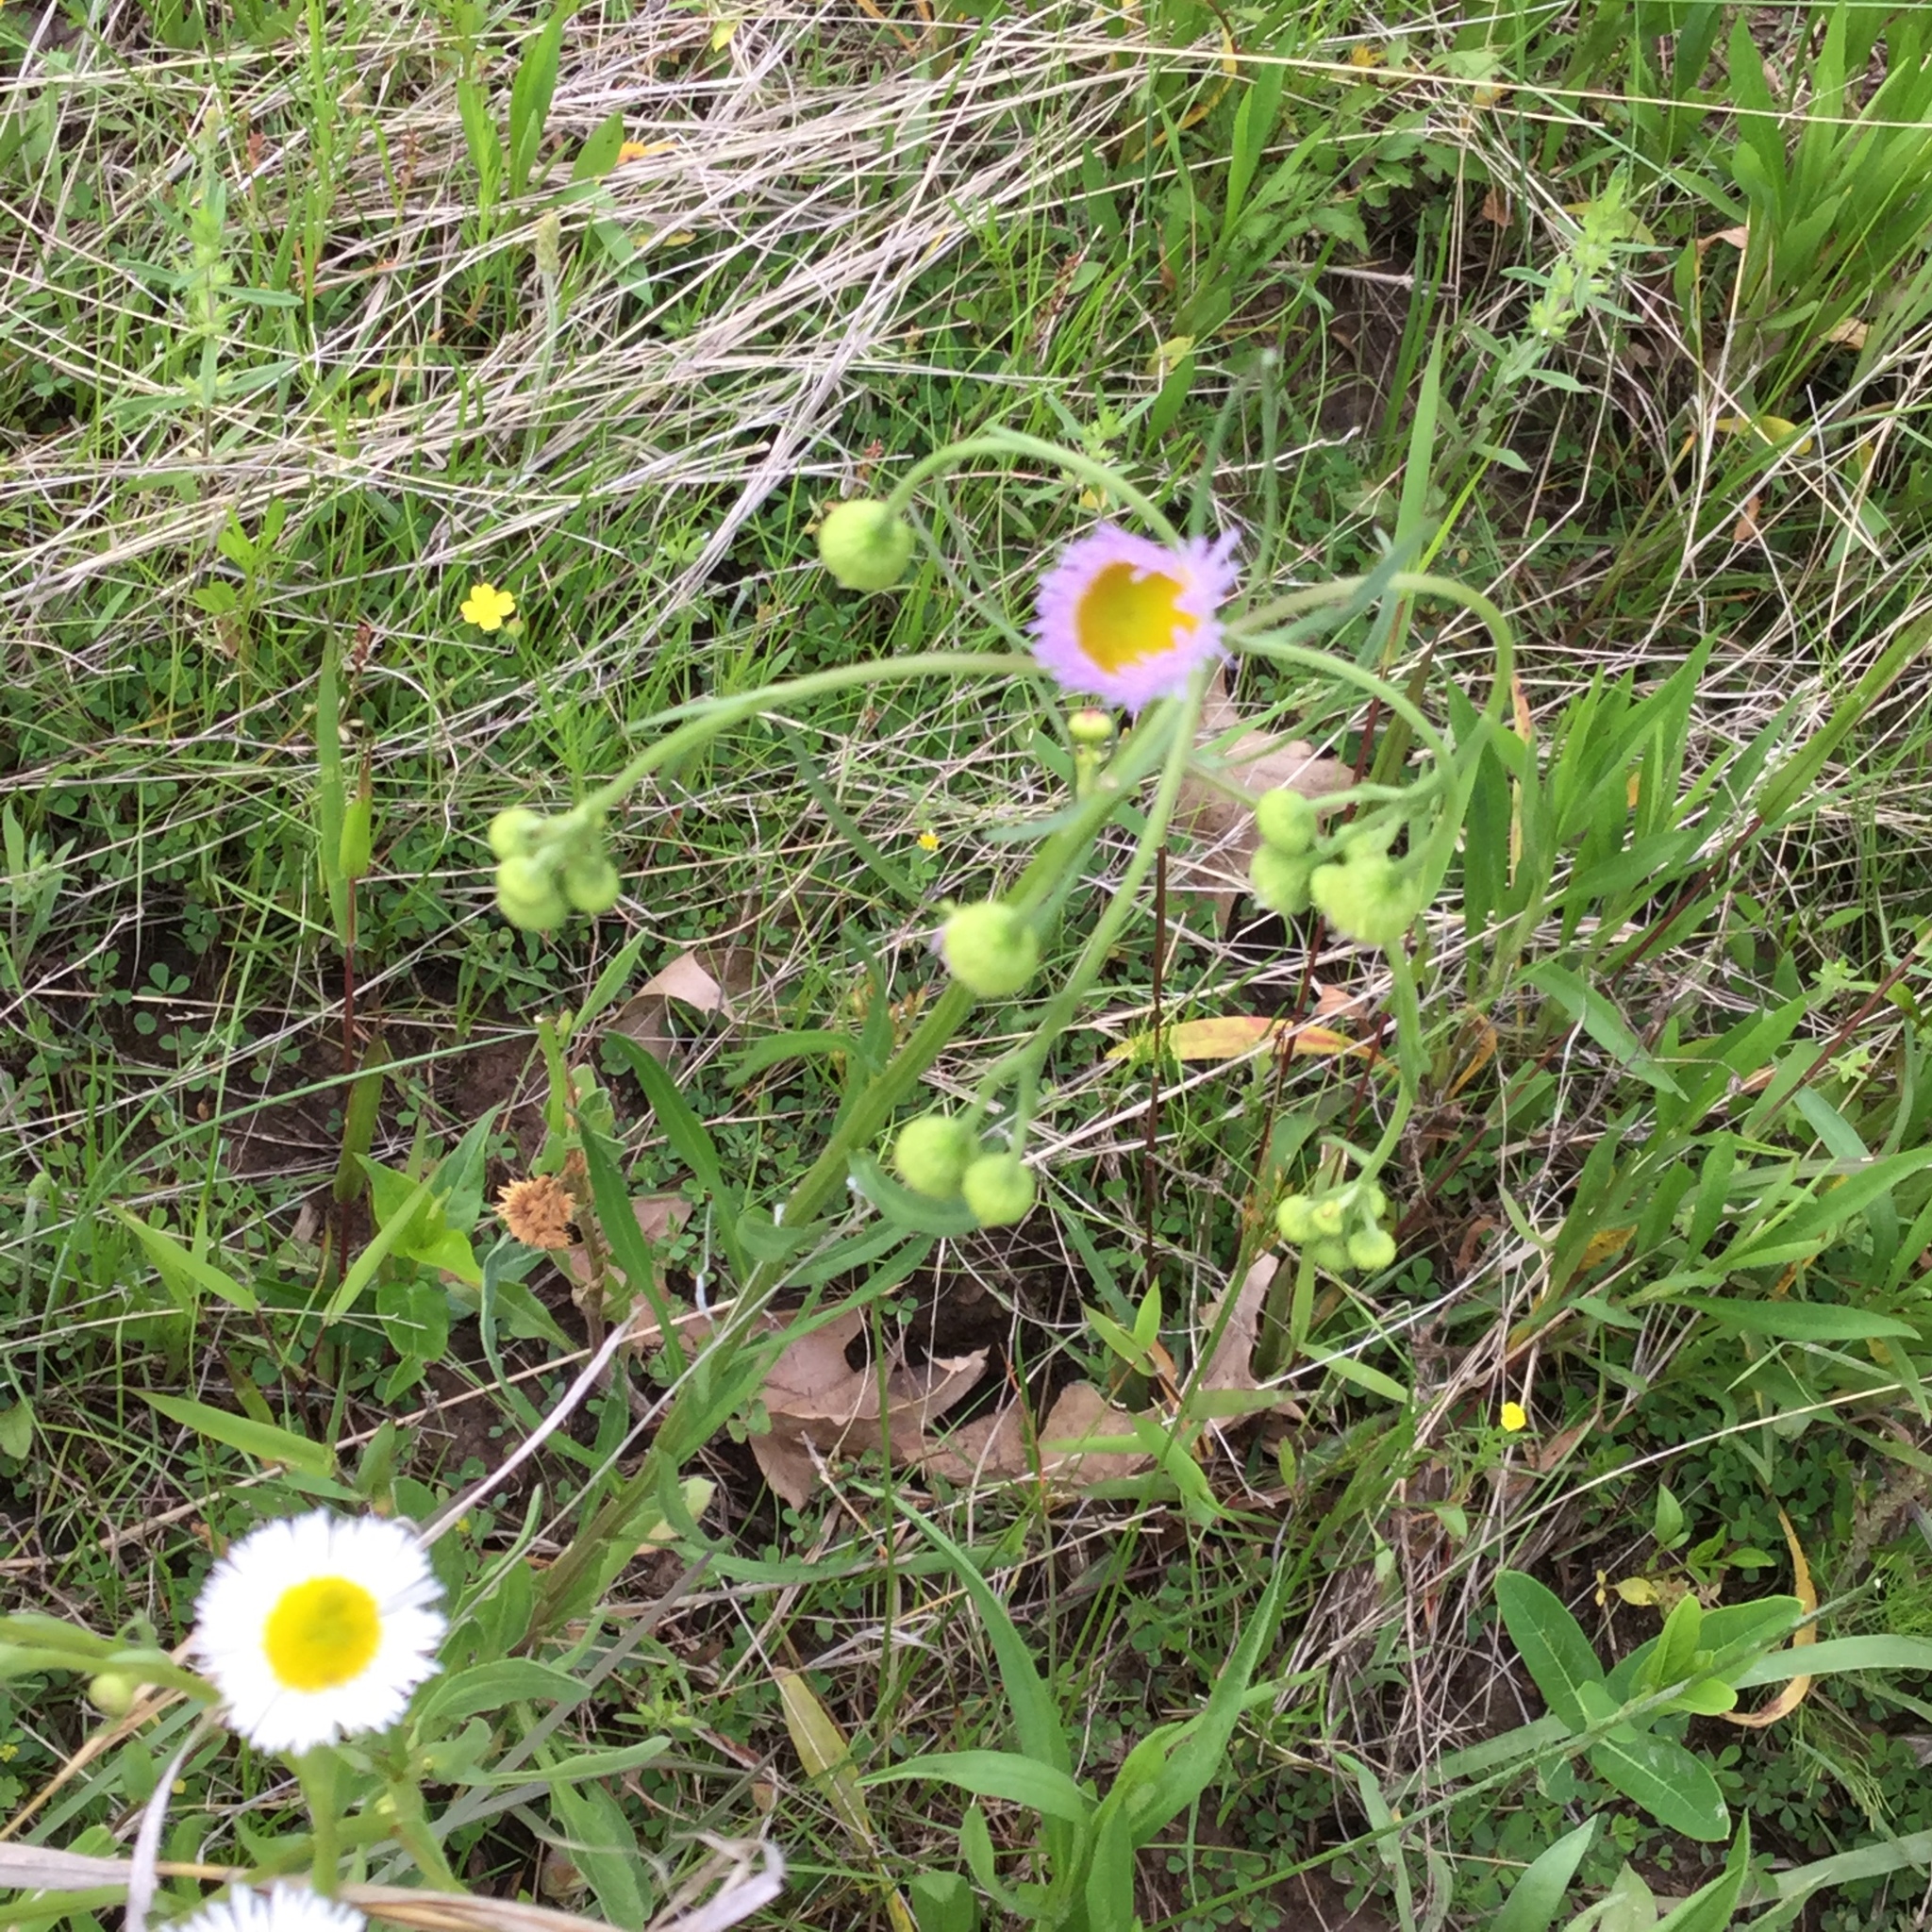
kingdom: Plantae
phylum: Tracheophyta
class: Magnoliopsida
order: Asterales
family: Asteraceae
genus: Erigeron
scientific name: Erigeron philadelphicus
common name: Robin's-plantain
